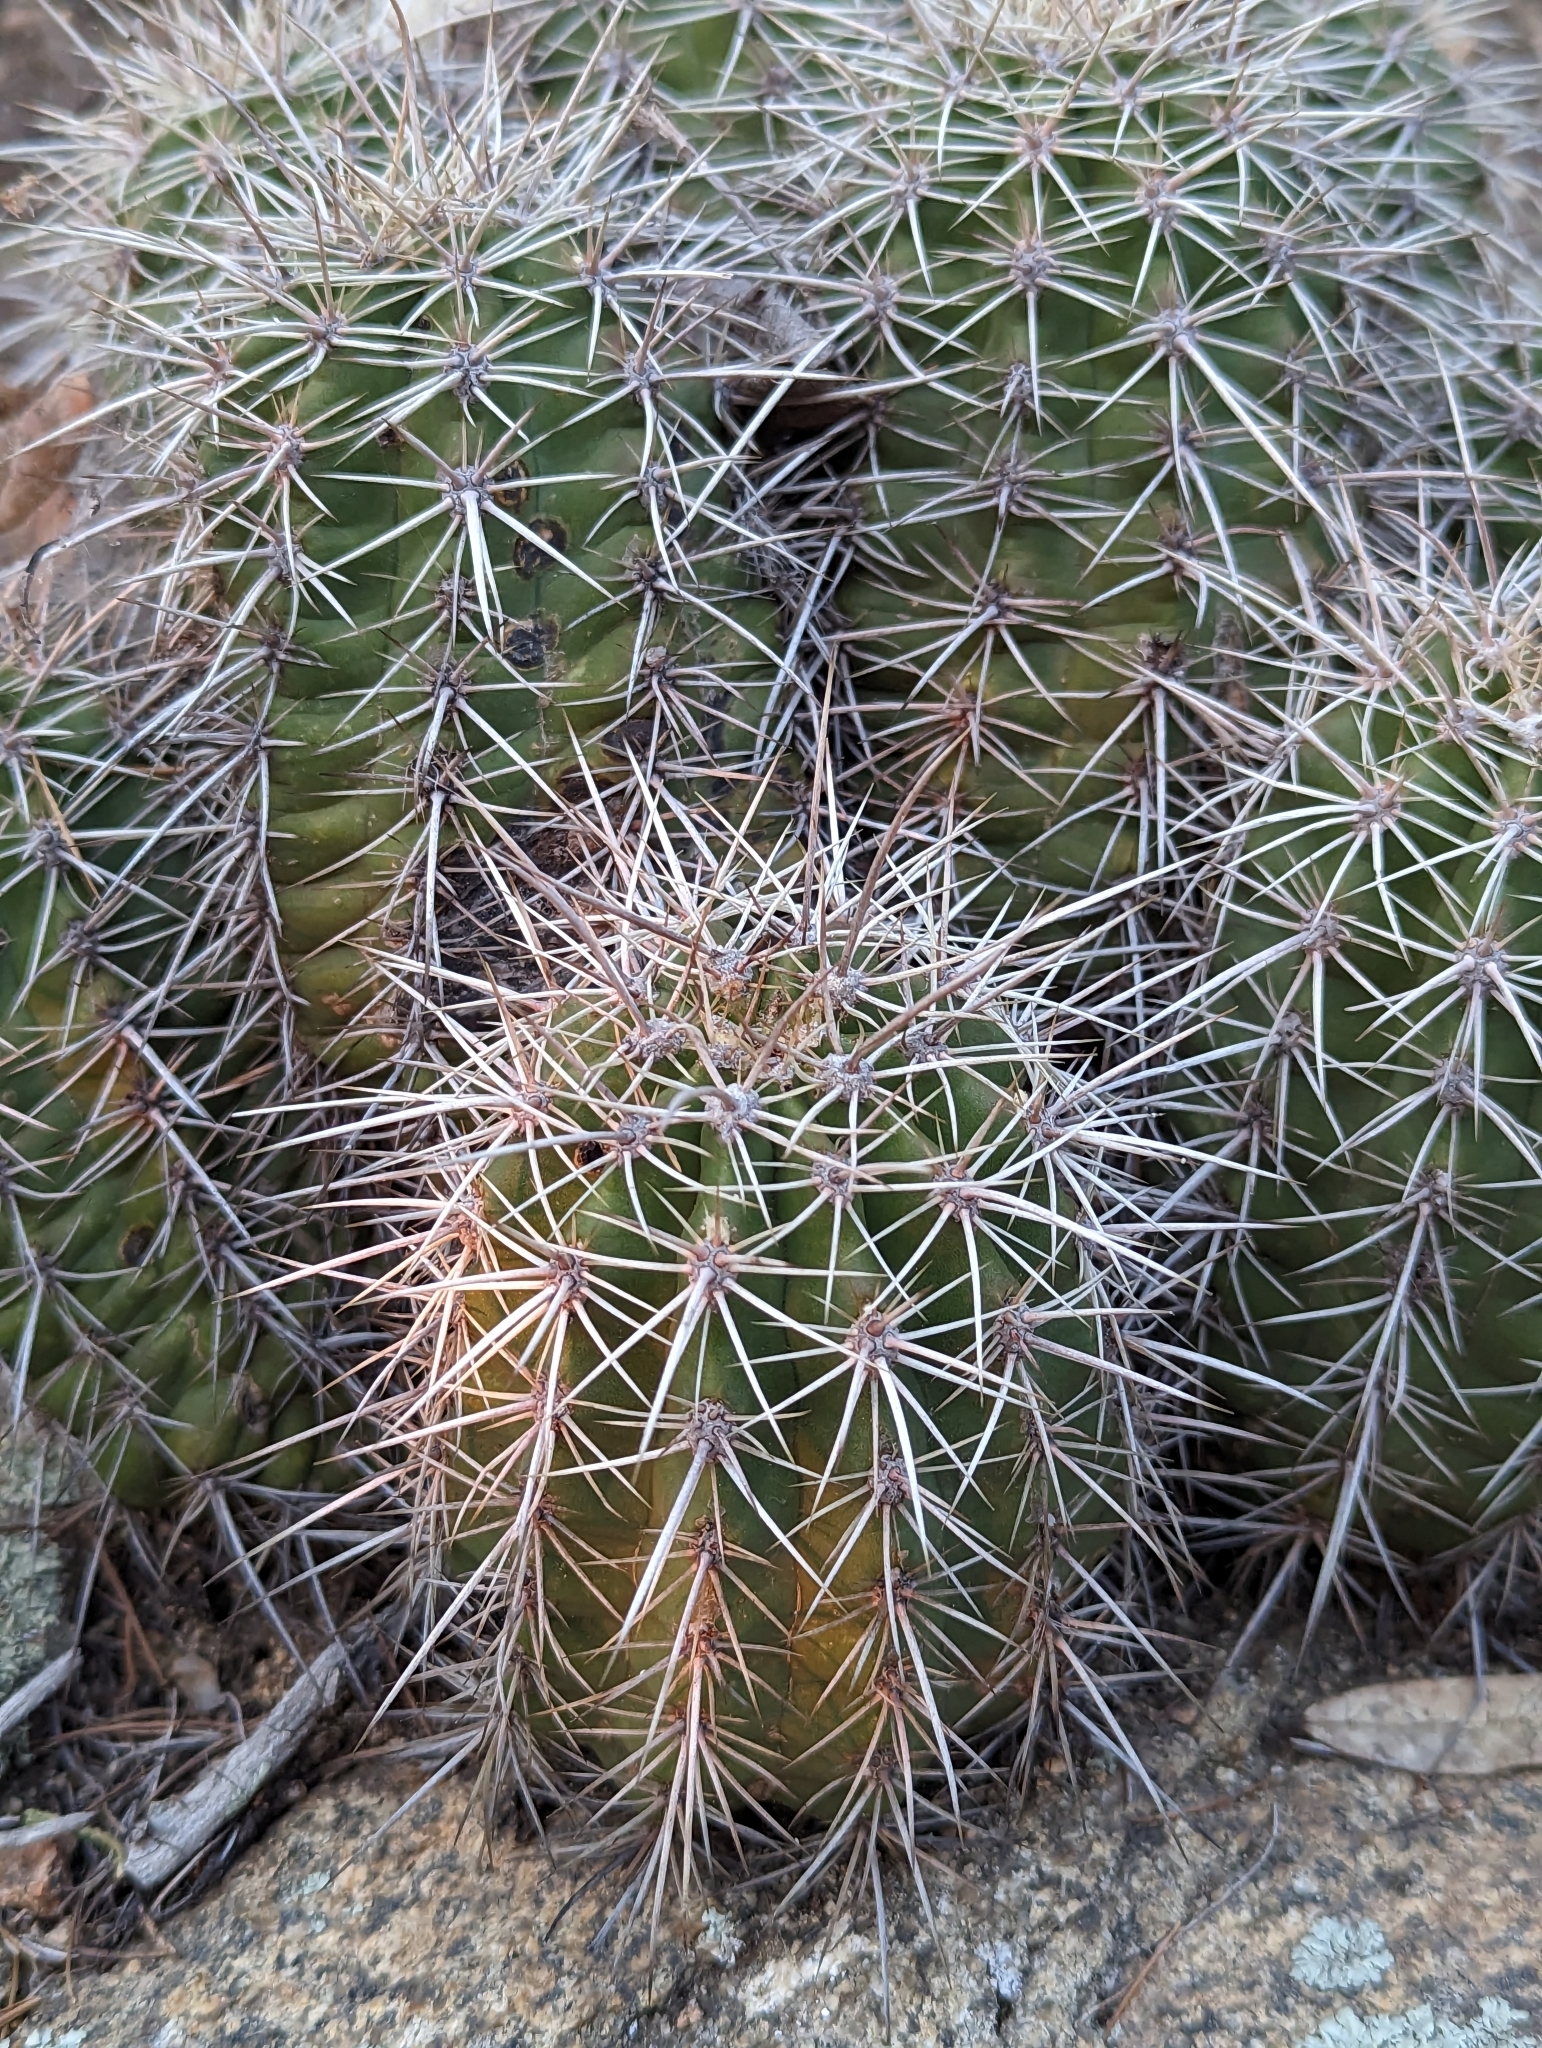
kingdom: Plantae
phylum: Tracheophyta
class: Magnoliopsida
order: Caryophyllales
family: Cactaceae
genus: Echinocereus
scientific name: Echinocereus coccineus
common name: Scarlet hedgehog cactus
